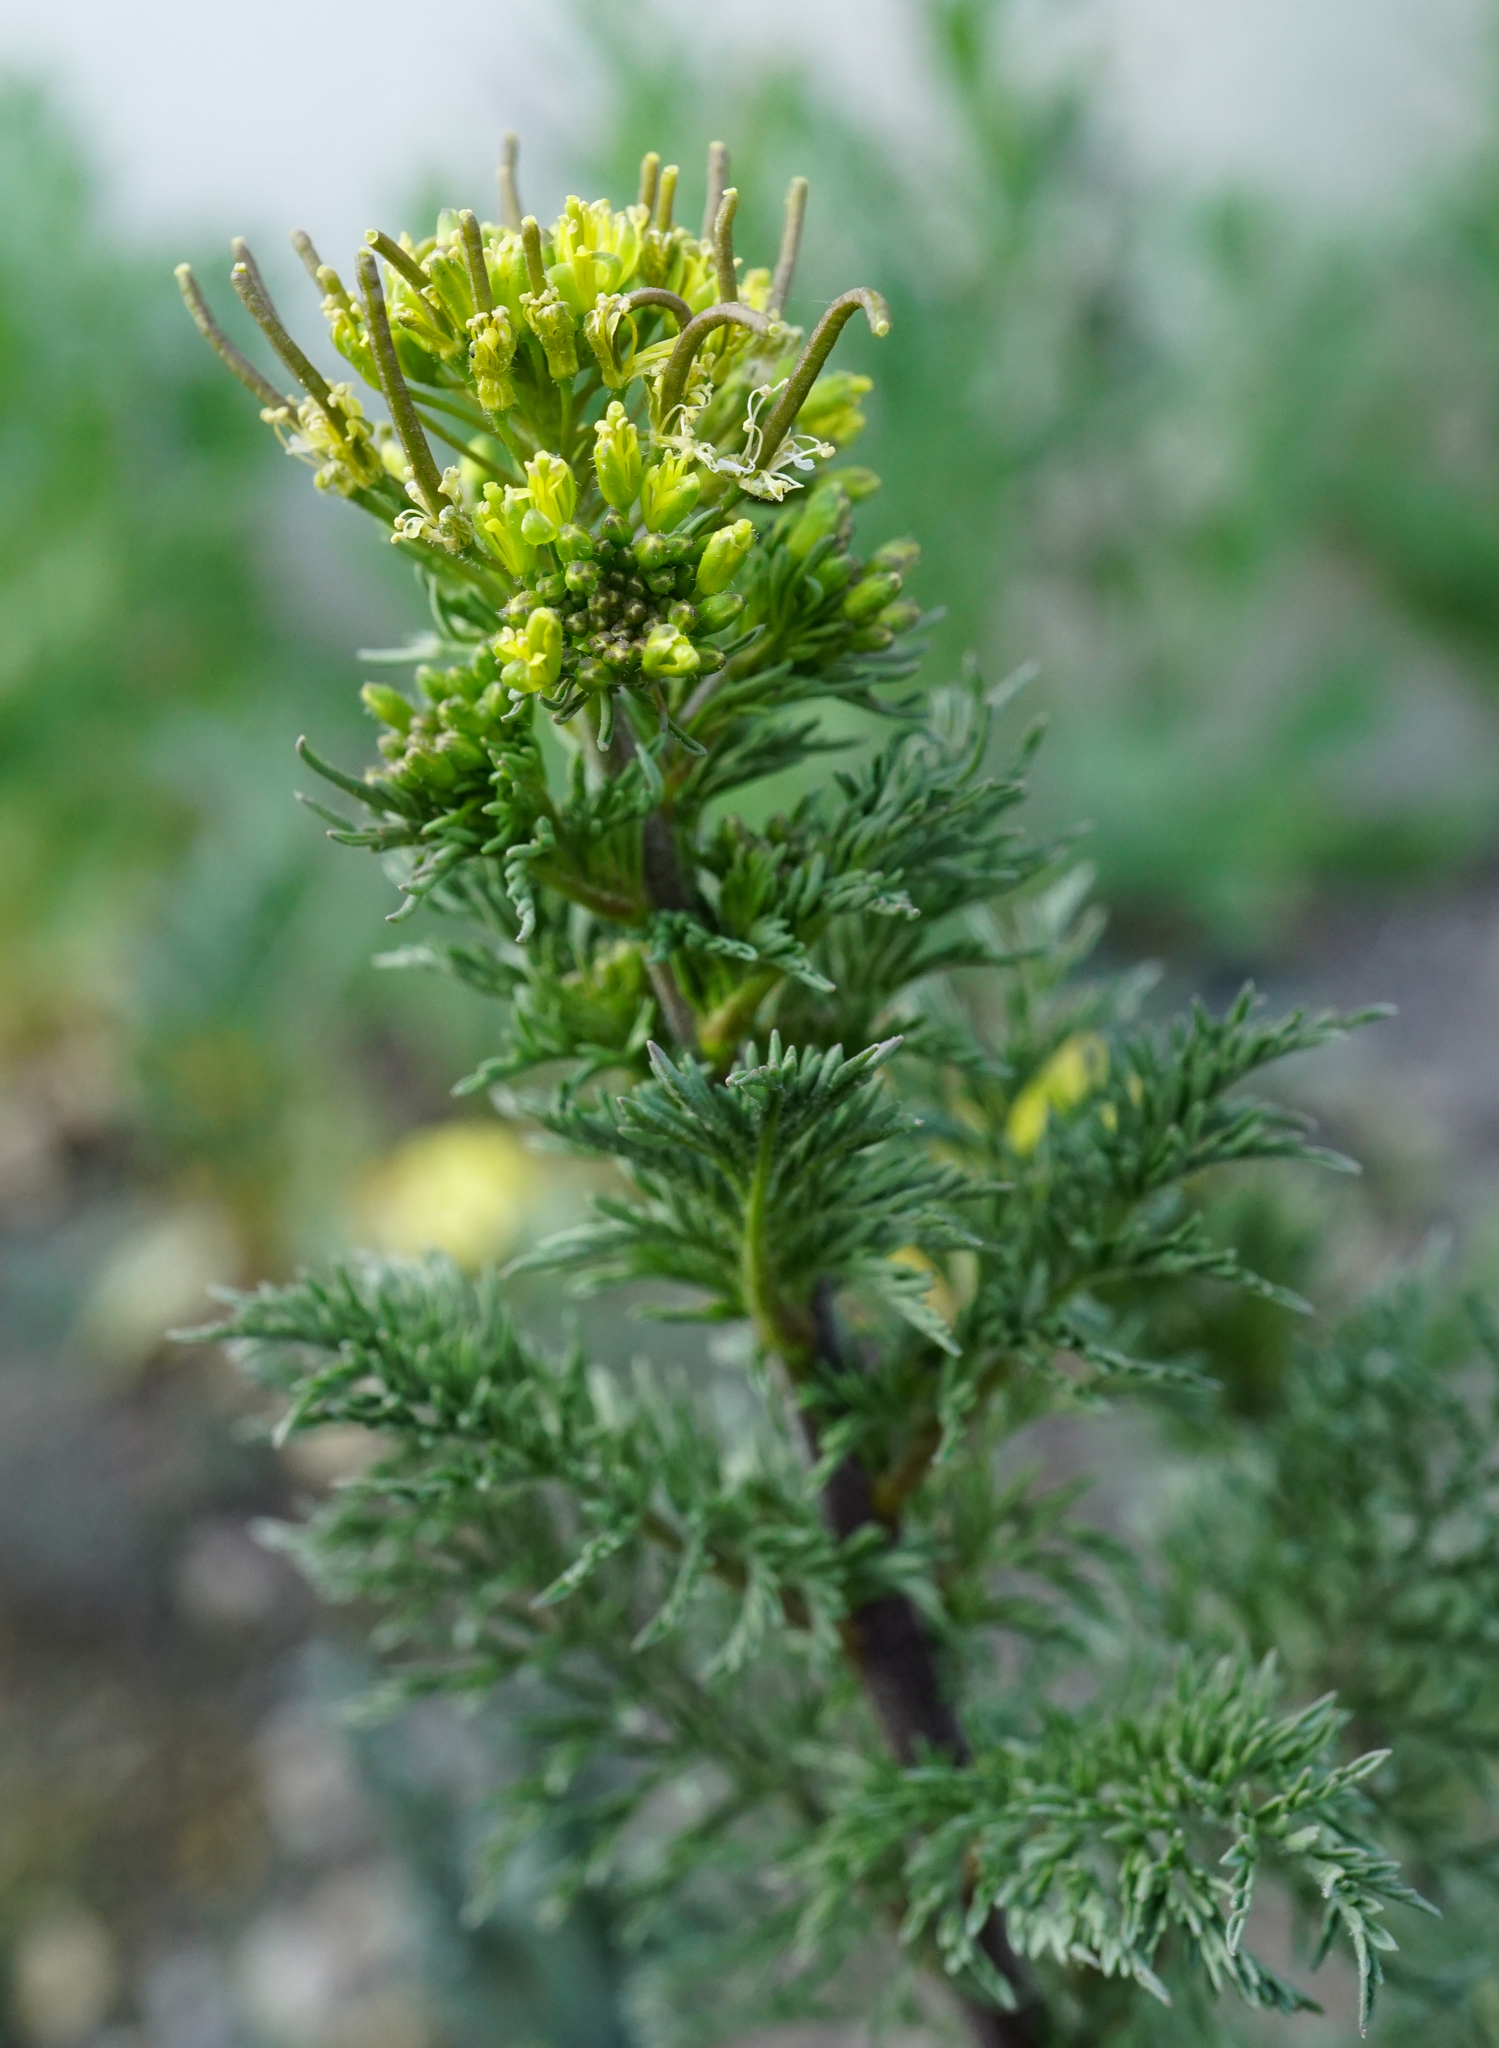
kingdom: Plantae
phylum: Tracheophyta
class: Magnoliopsida
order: Brassicales
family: Brassicaceae
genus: Descurainia
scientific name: Descurainia sophia
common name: Flixweed
